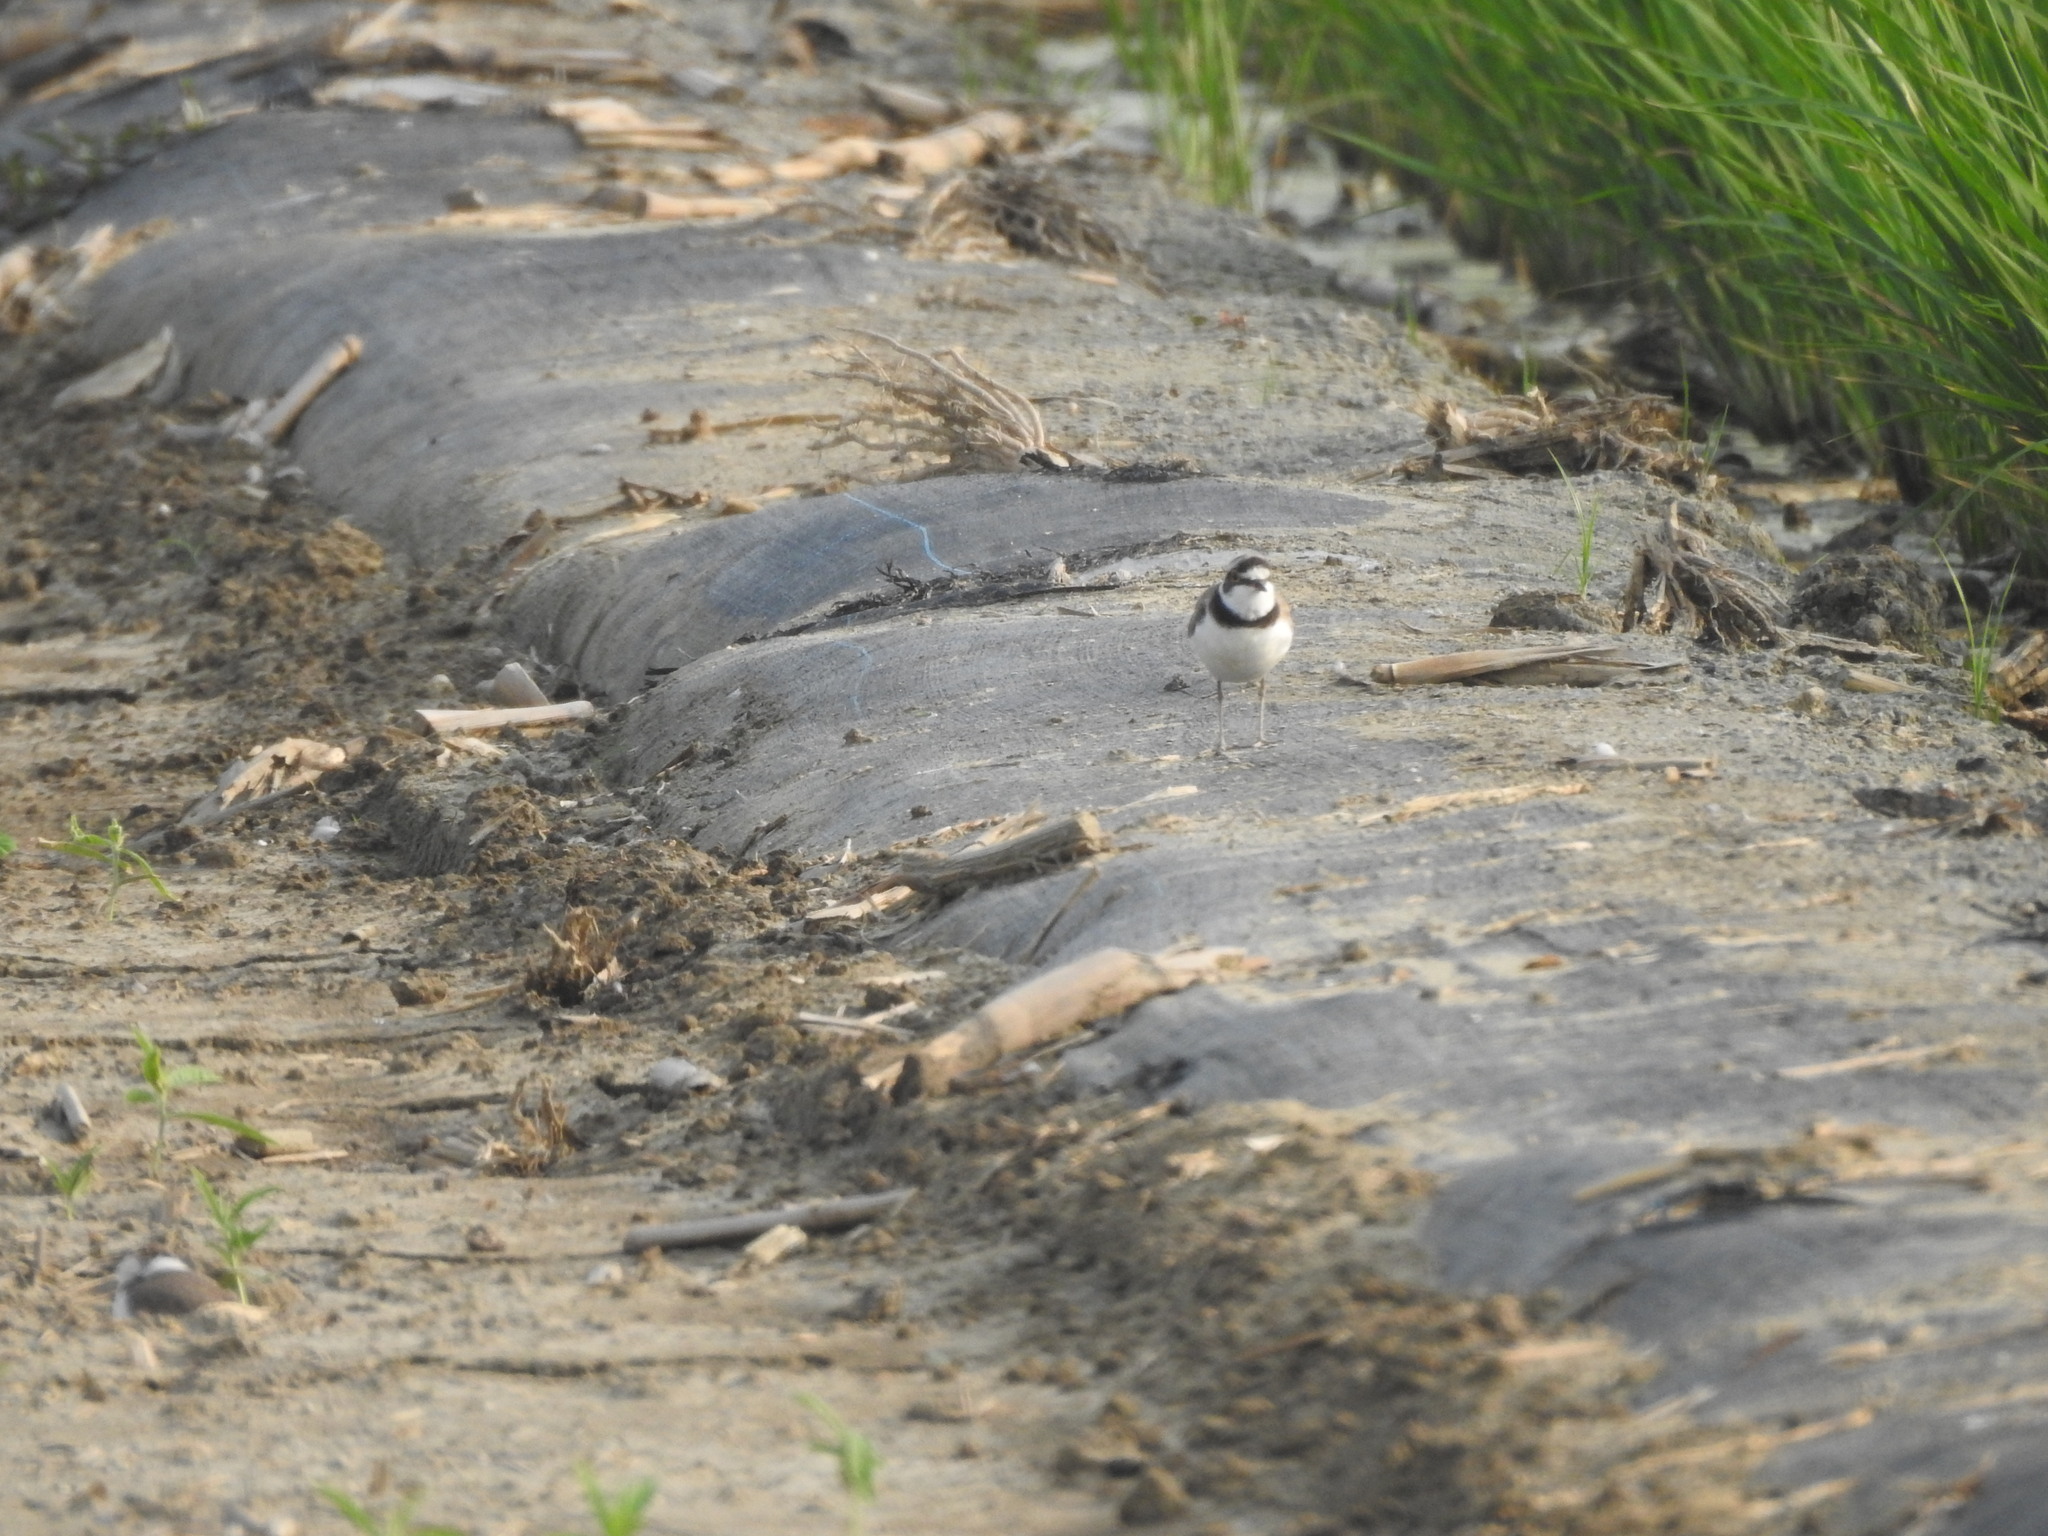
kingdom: Animalia
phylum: Chordata
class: Aves
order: Charadriiformes
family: Charadriidae
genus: Charadrius
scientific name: Charadrius dubius
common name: Little ringed plover
